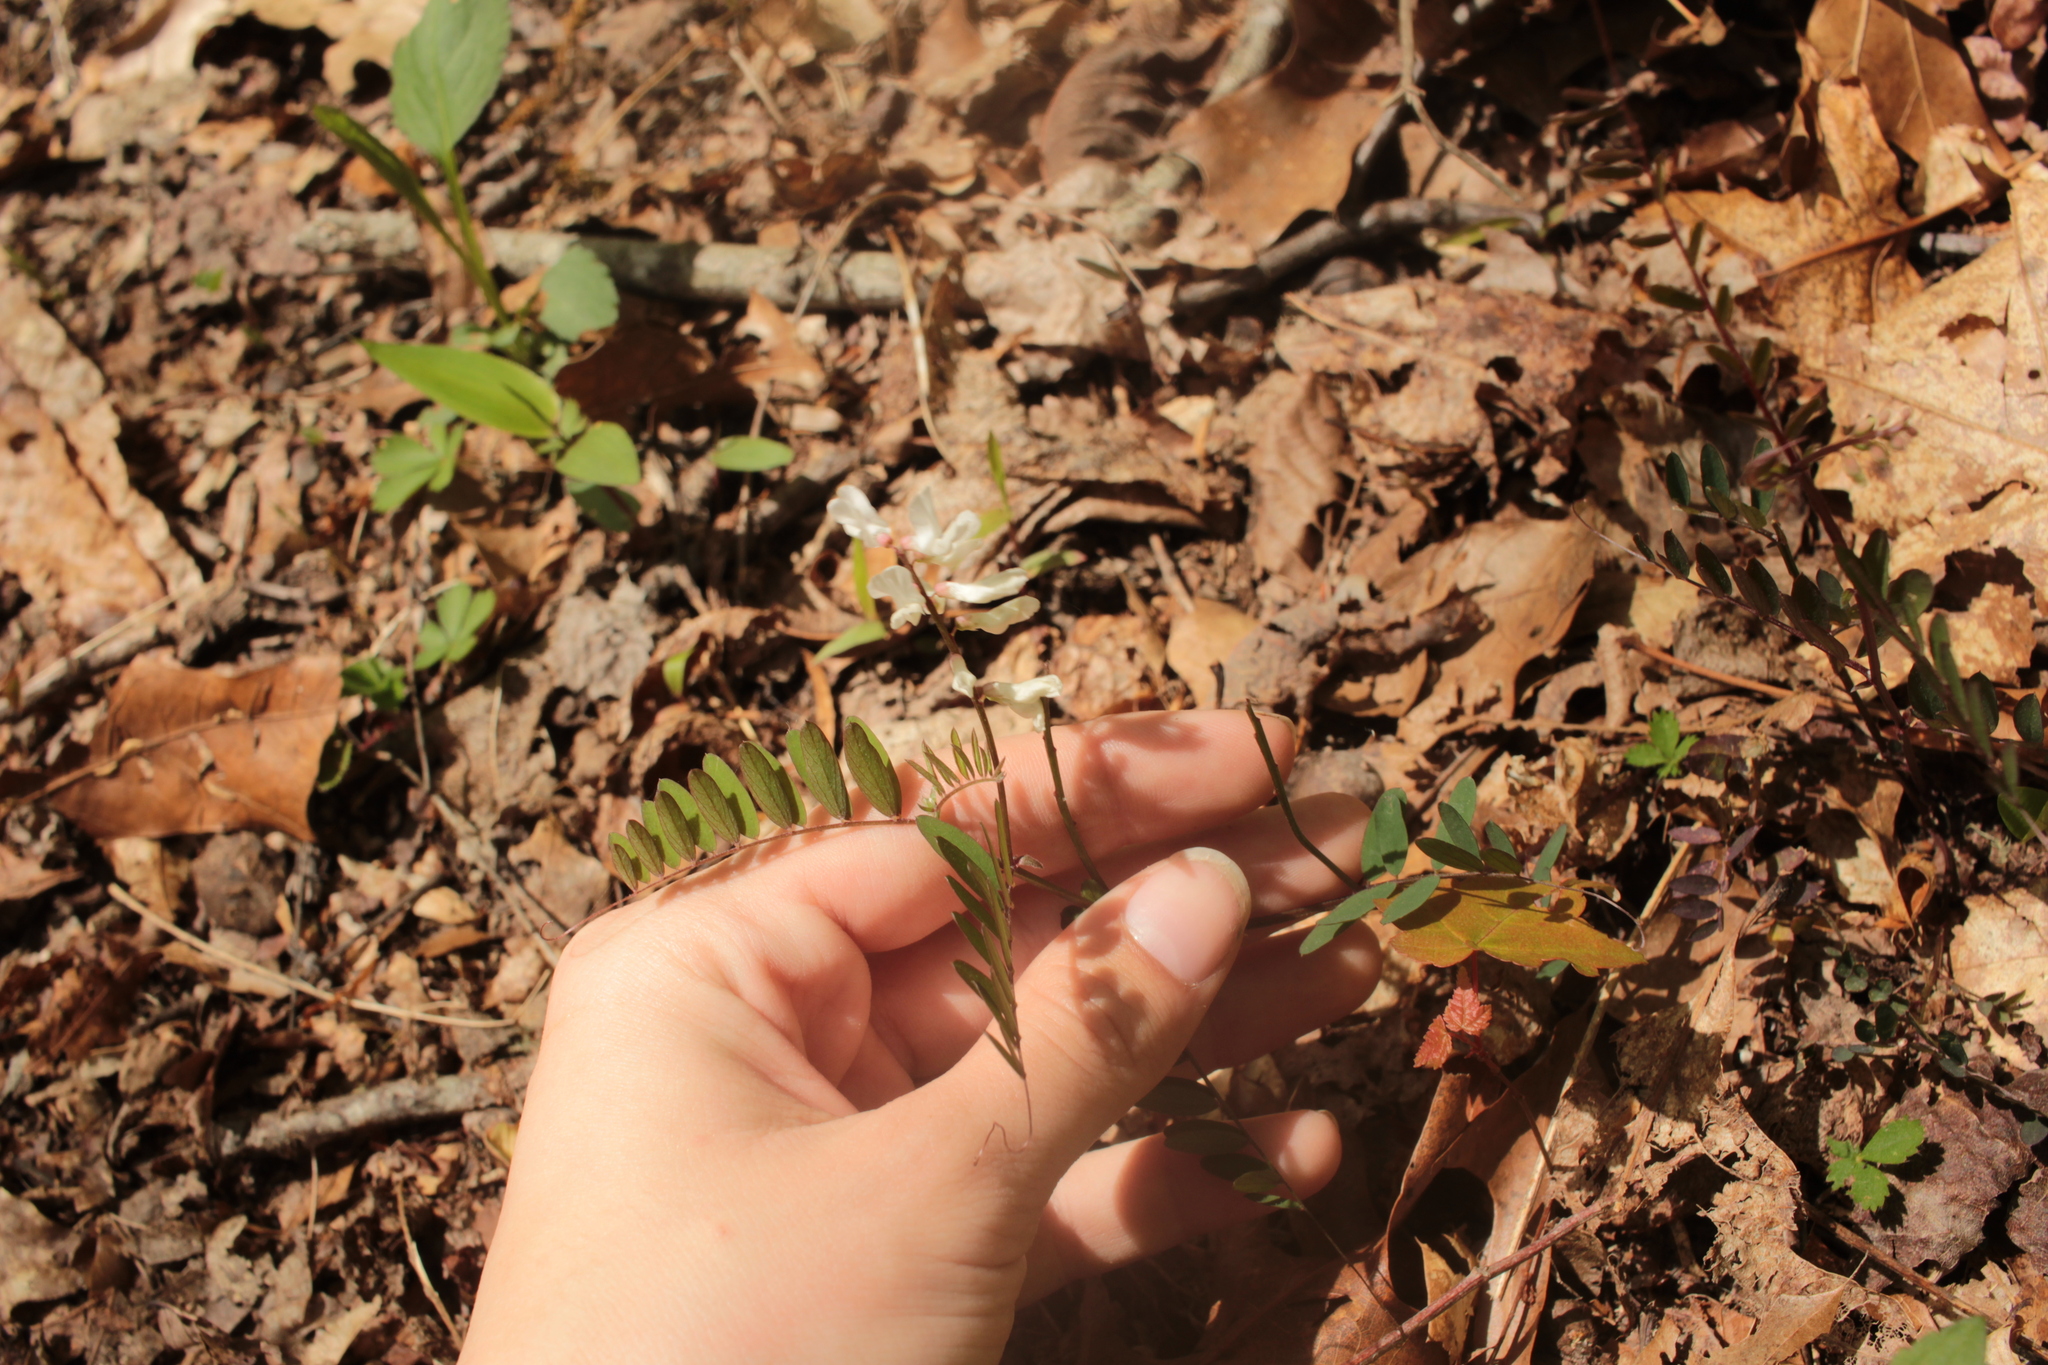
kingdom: Plantae
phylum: Tracheophyta
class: Magnoliopsida
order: Fabales
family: Fabaceae
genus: Vicia
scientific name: Vicia caroliniana
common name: Carolina vetch
